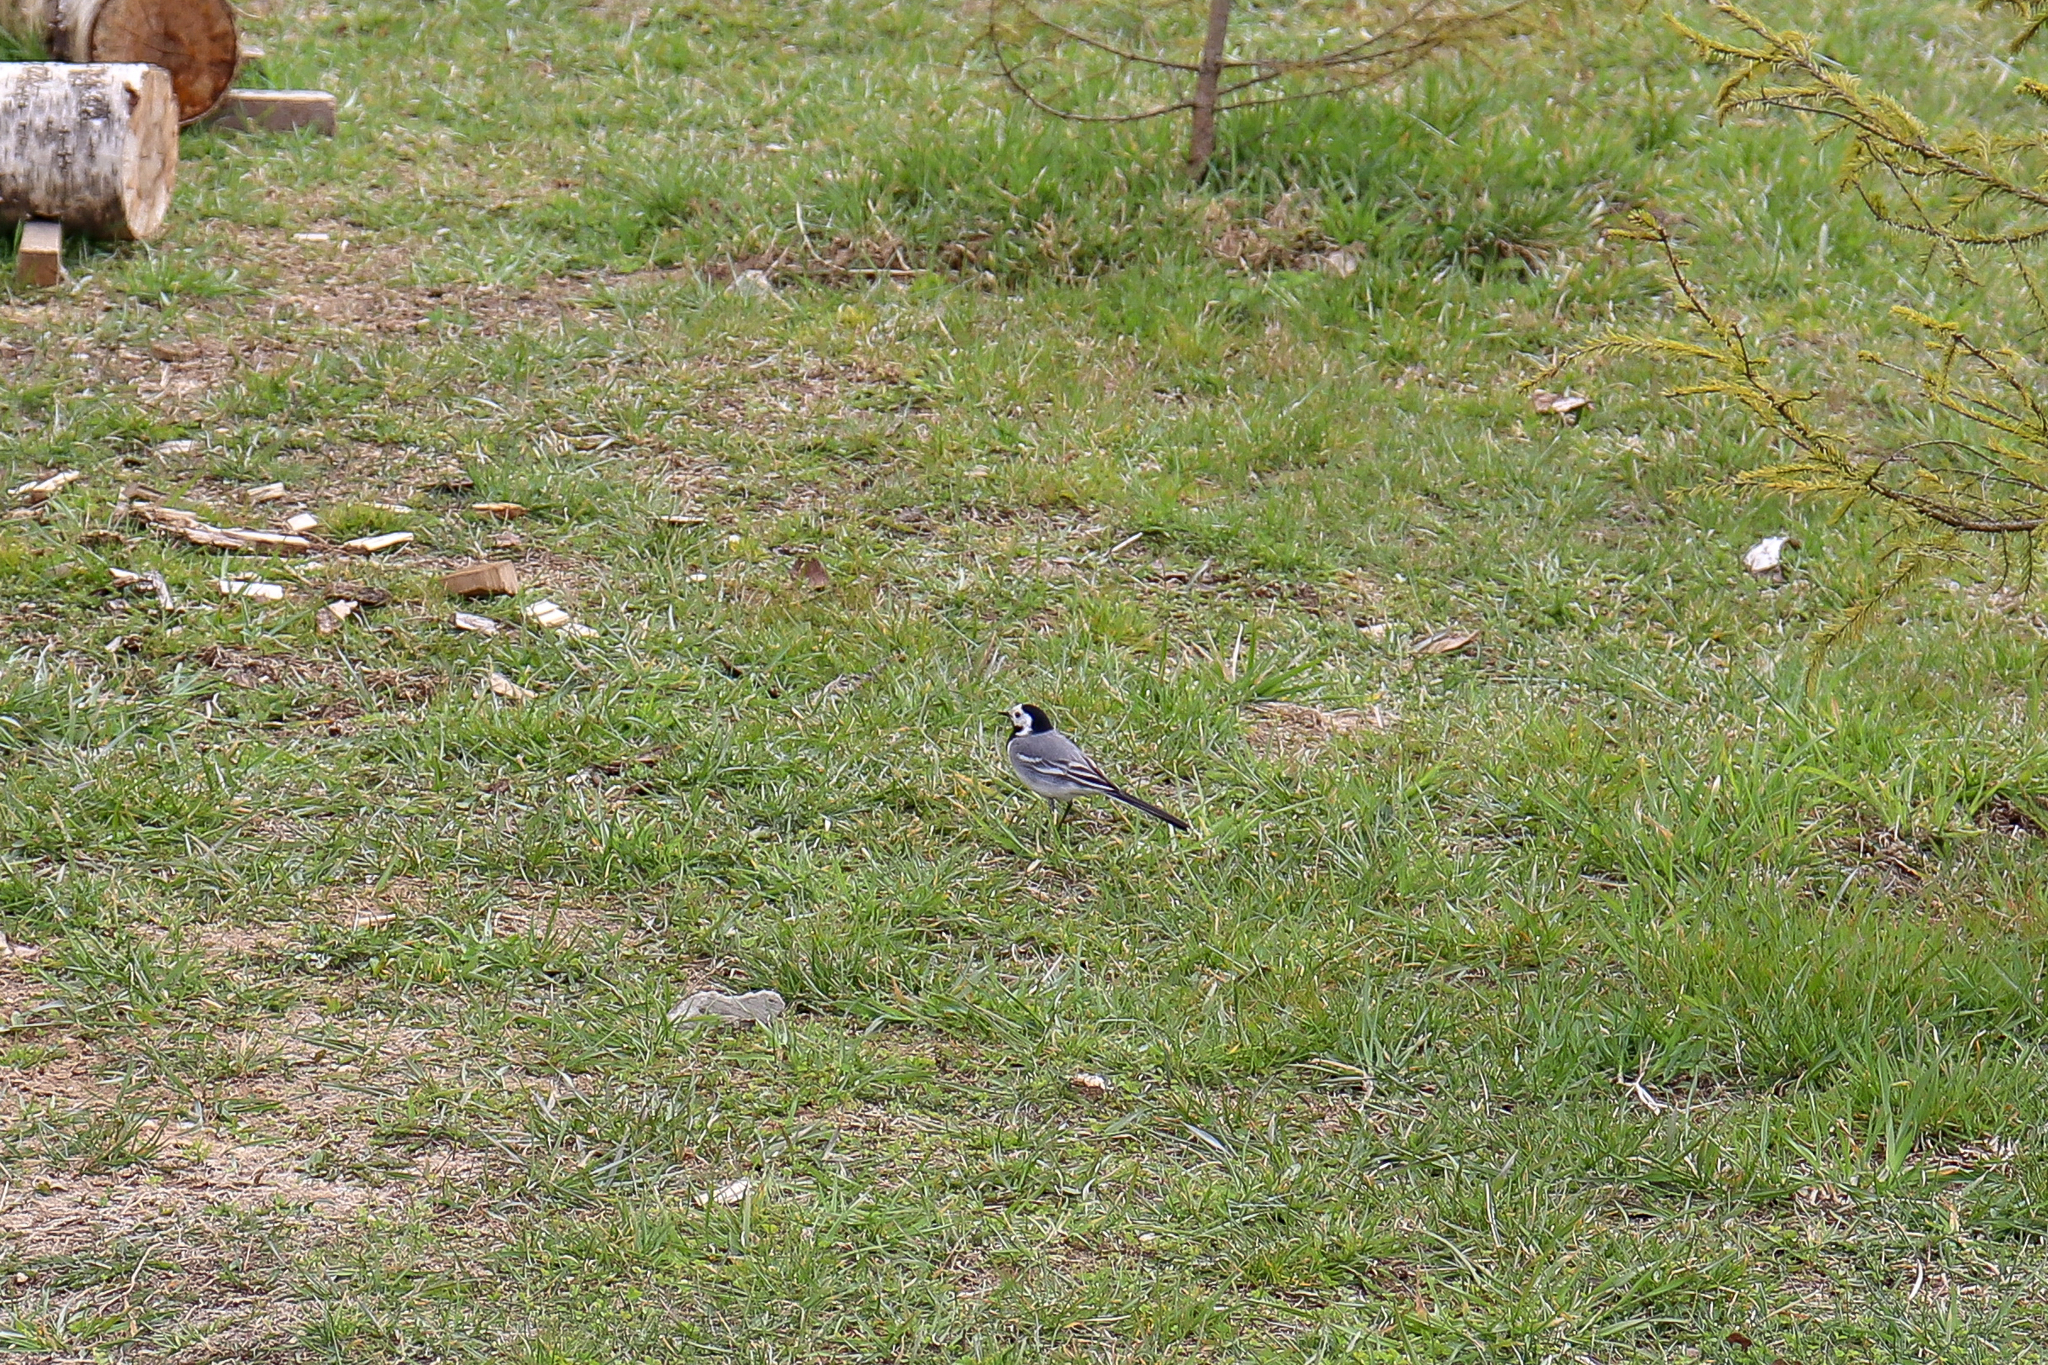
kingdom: Animalia
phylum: Chordata
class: Aves
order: Passeriformes
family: Motacillidae
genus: Motacilla
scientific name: Motacilla alba
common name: White wagtail
